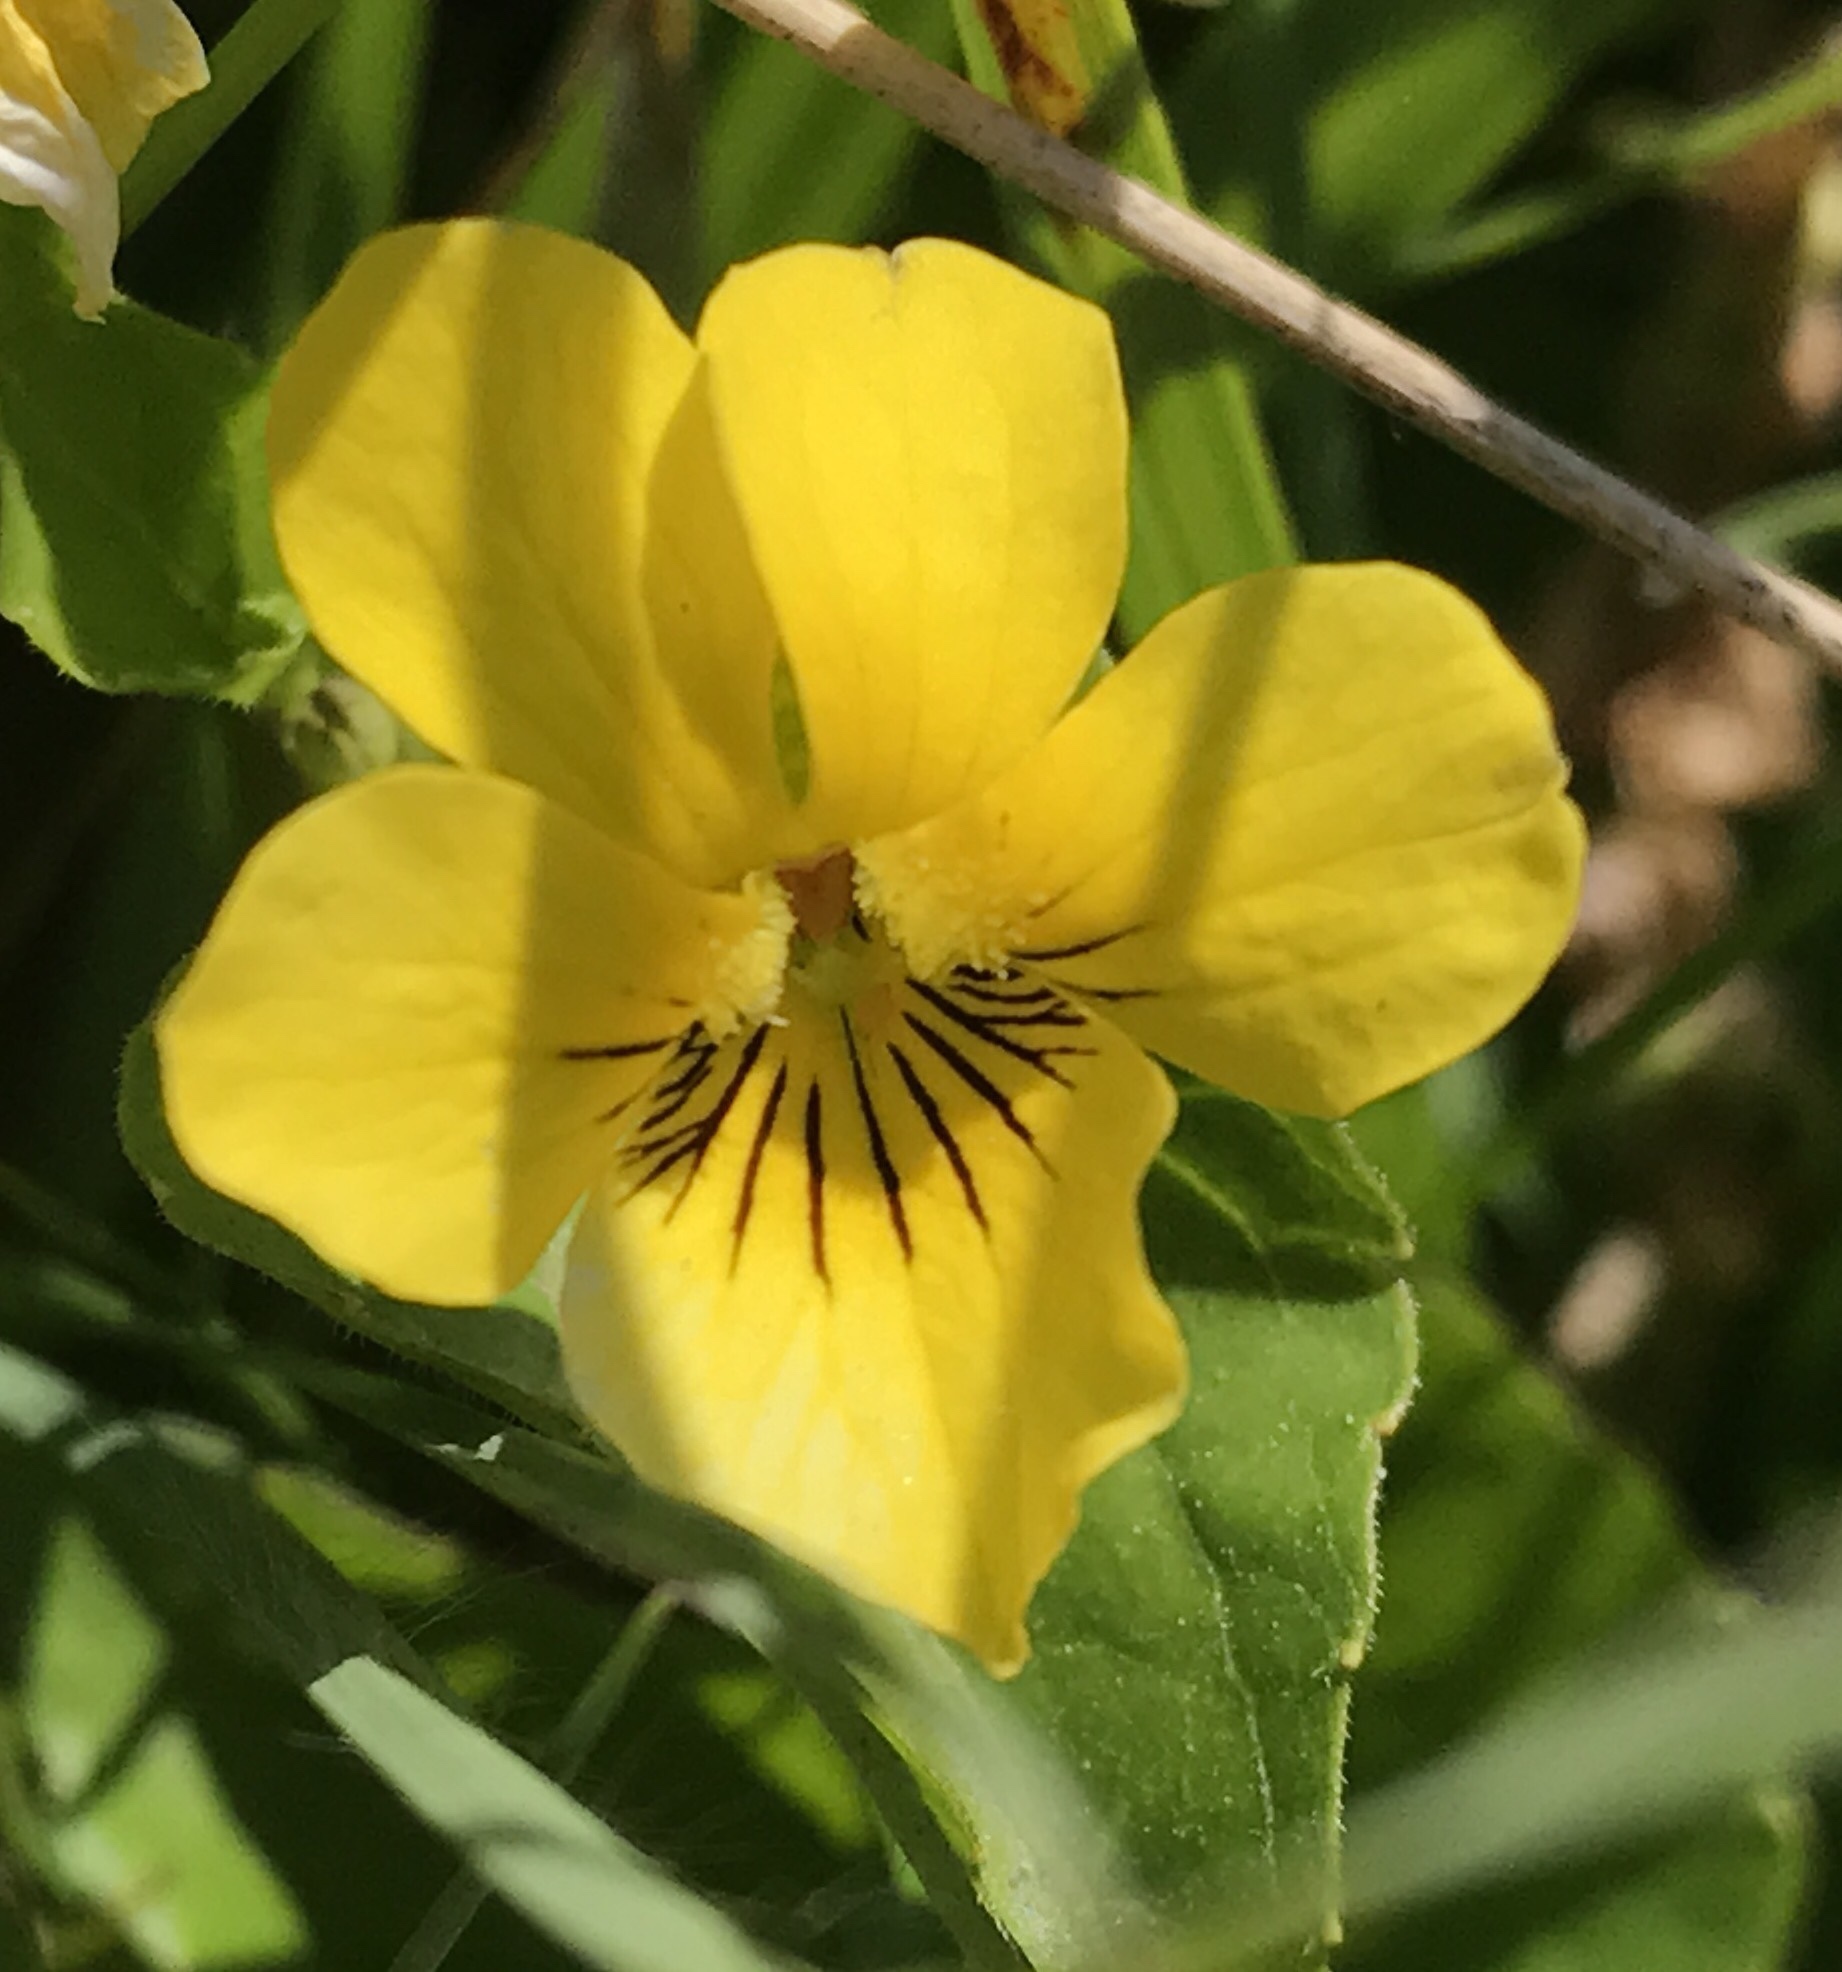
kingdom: Plantae
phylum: Tracheophyta
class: Magnoliopsida
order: Malpighiales
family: Violaceae
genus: Viola
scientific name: Viola glabella
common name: Stream violet
